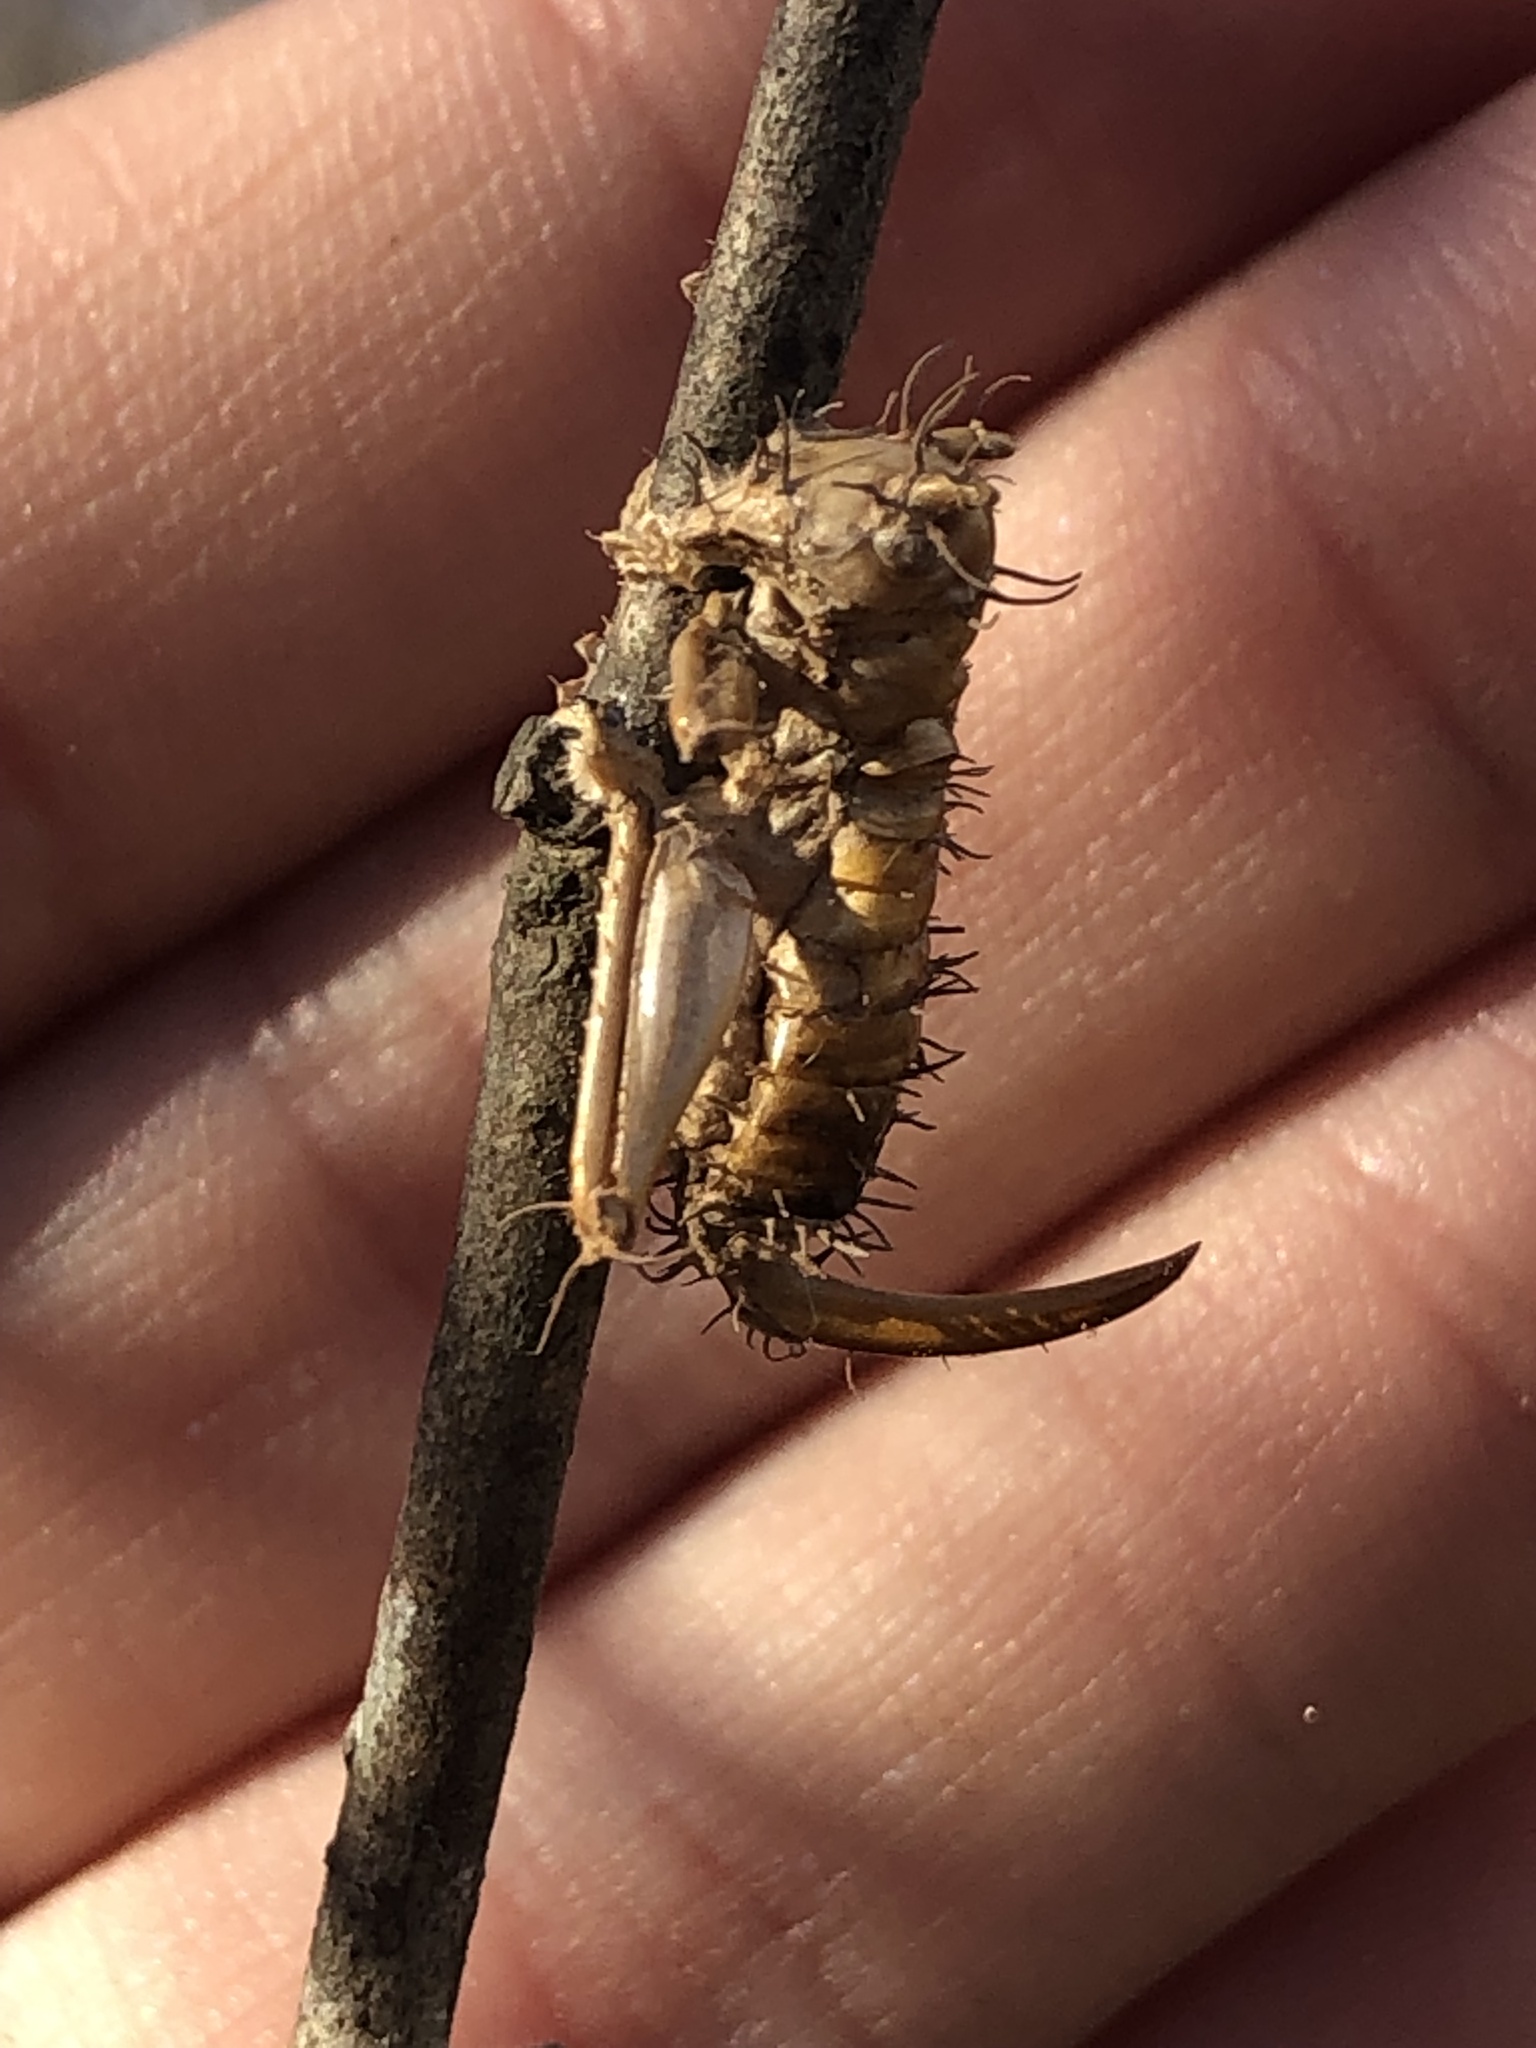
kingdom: Fungi
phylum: Ascomycota
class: Sordariomycetes
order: Hypocreales
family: Ophiocordycipitaceae
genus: Ophiocordyceps
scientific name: Ophiocordyceps
